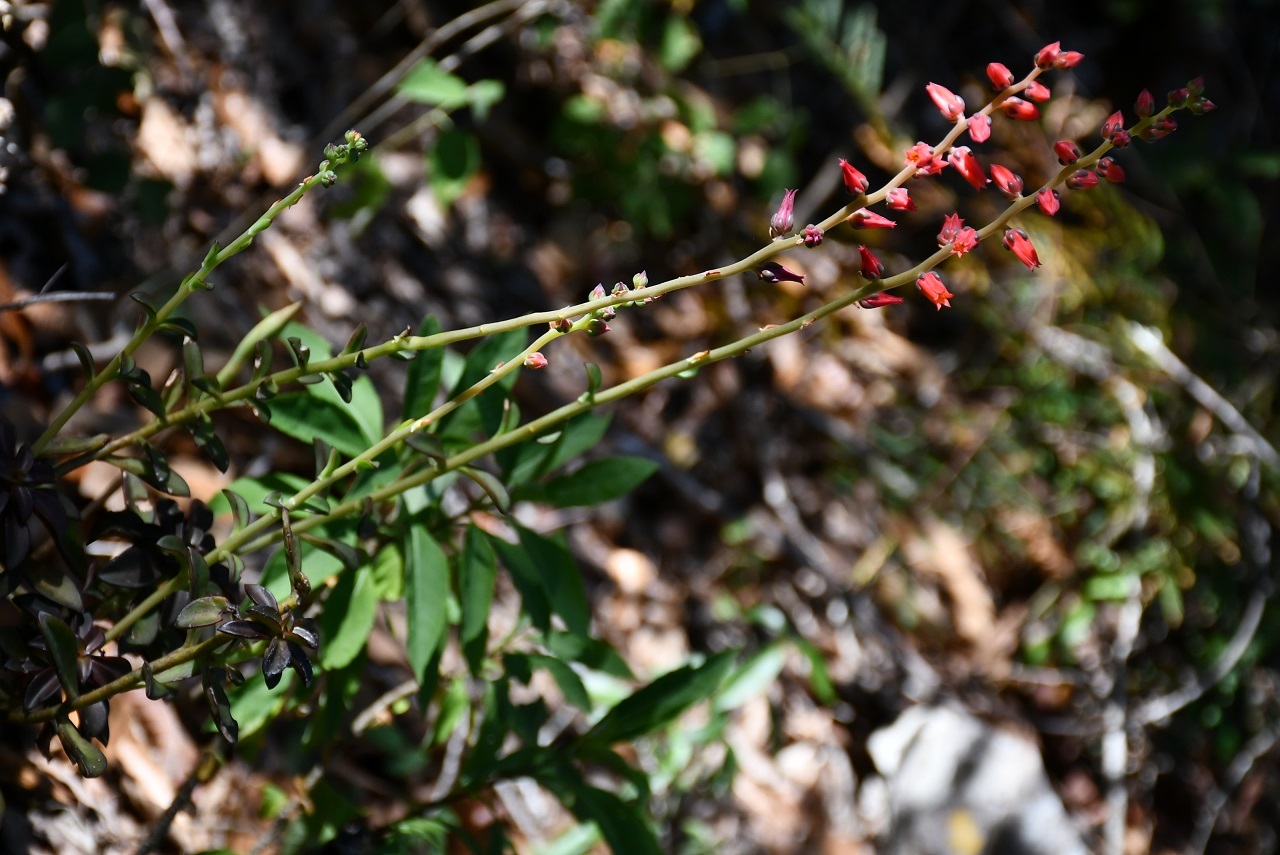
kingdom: Plantae
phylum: Tracheophyta
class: Magnoliopsida
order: Saxifragales
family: Crassulaceae
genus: Echeveria
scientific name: Echeveria goldmanii
